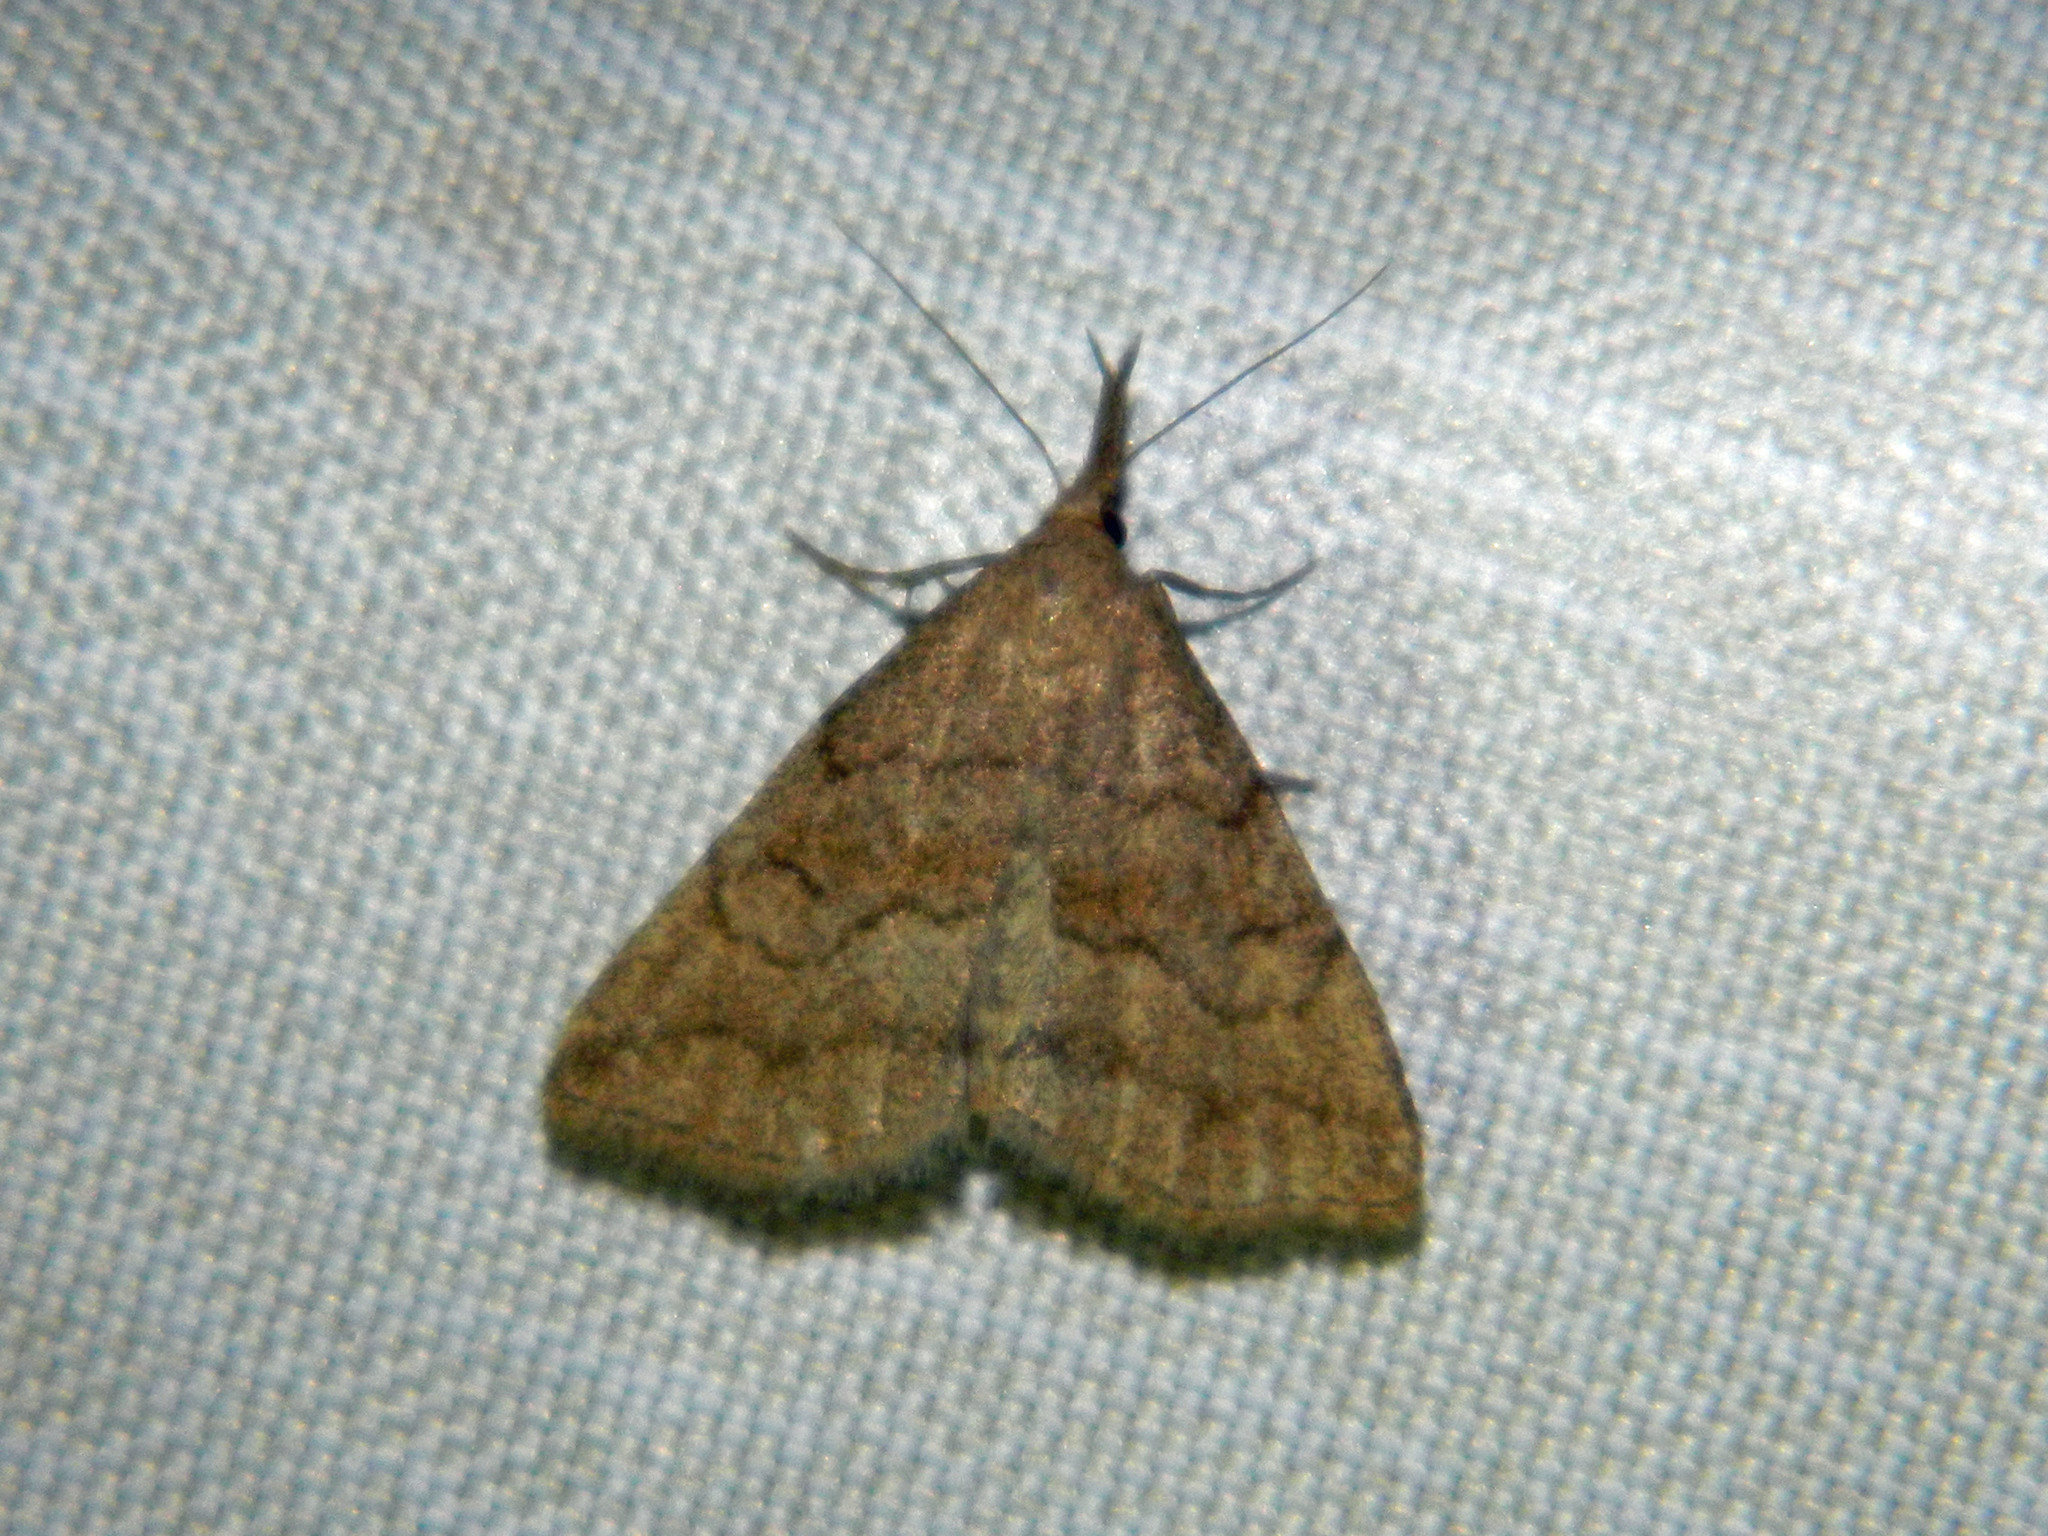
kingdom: Animalia
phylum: Arthropoda
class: Insecta
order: Lepidoptera
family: Erebidae
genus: Phalaenostola
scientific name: Phalaenostola metonalis
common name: Pale phalaenostola moth
